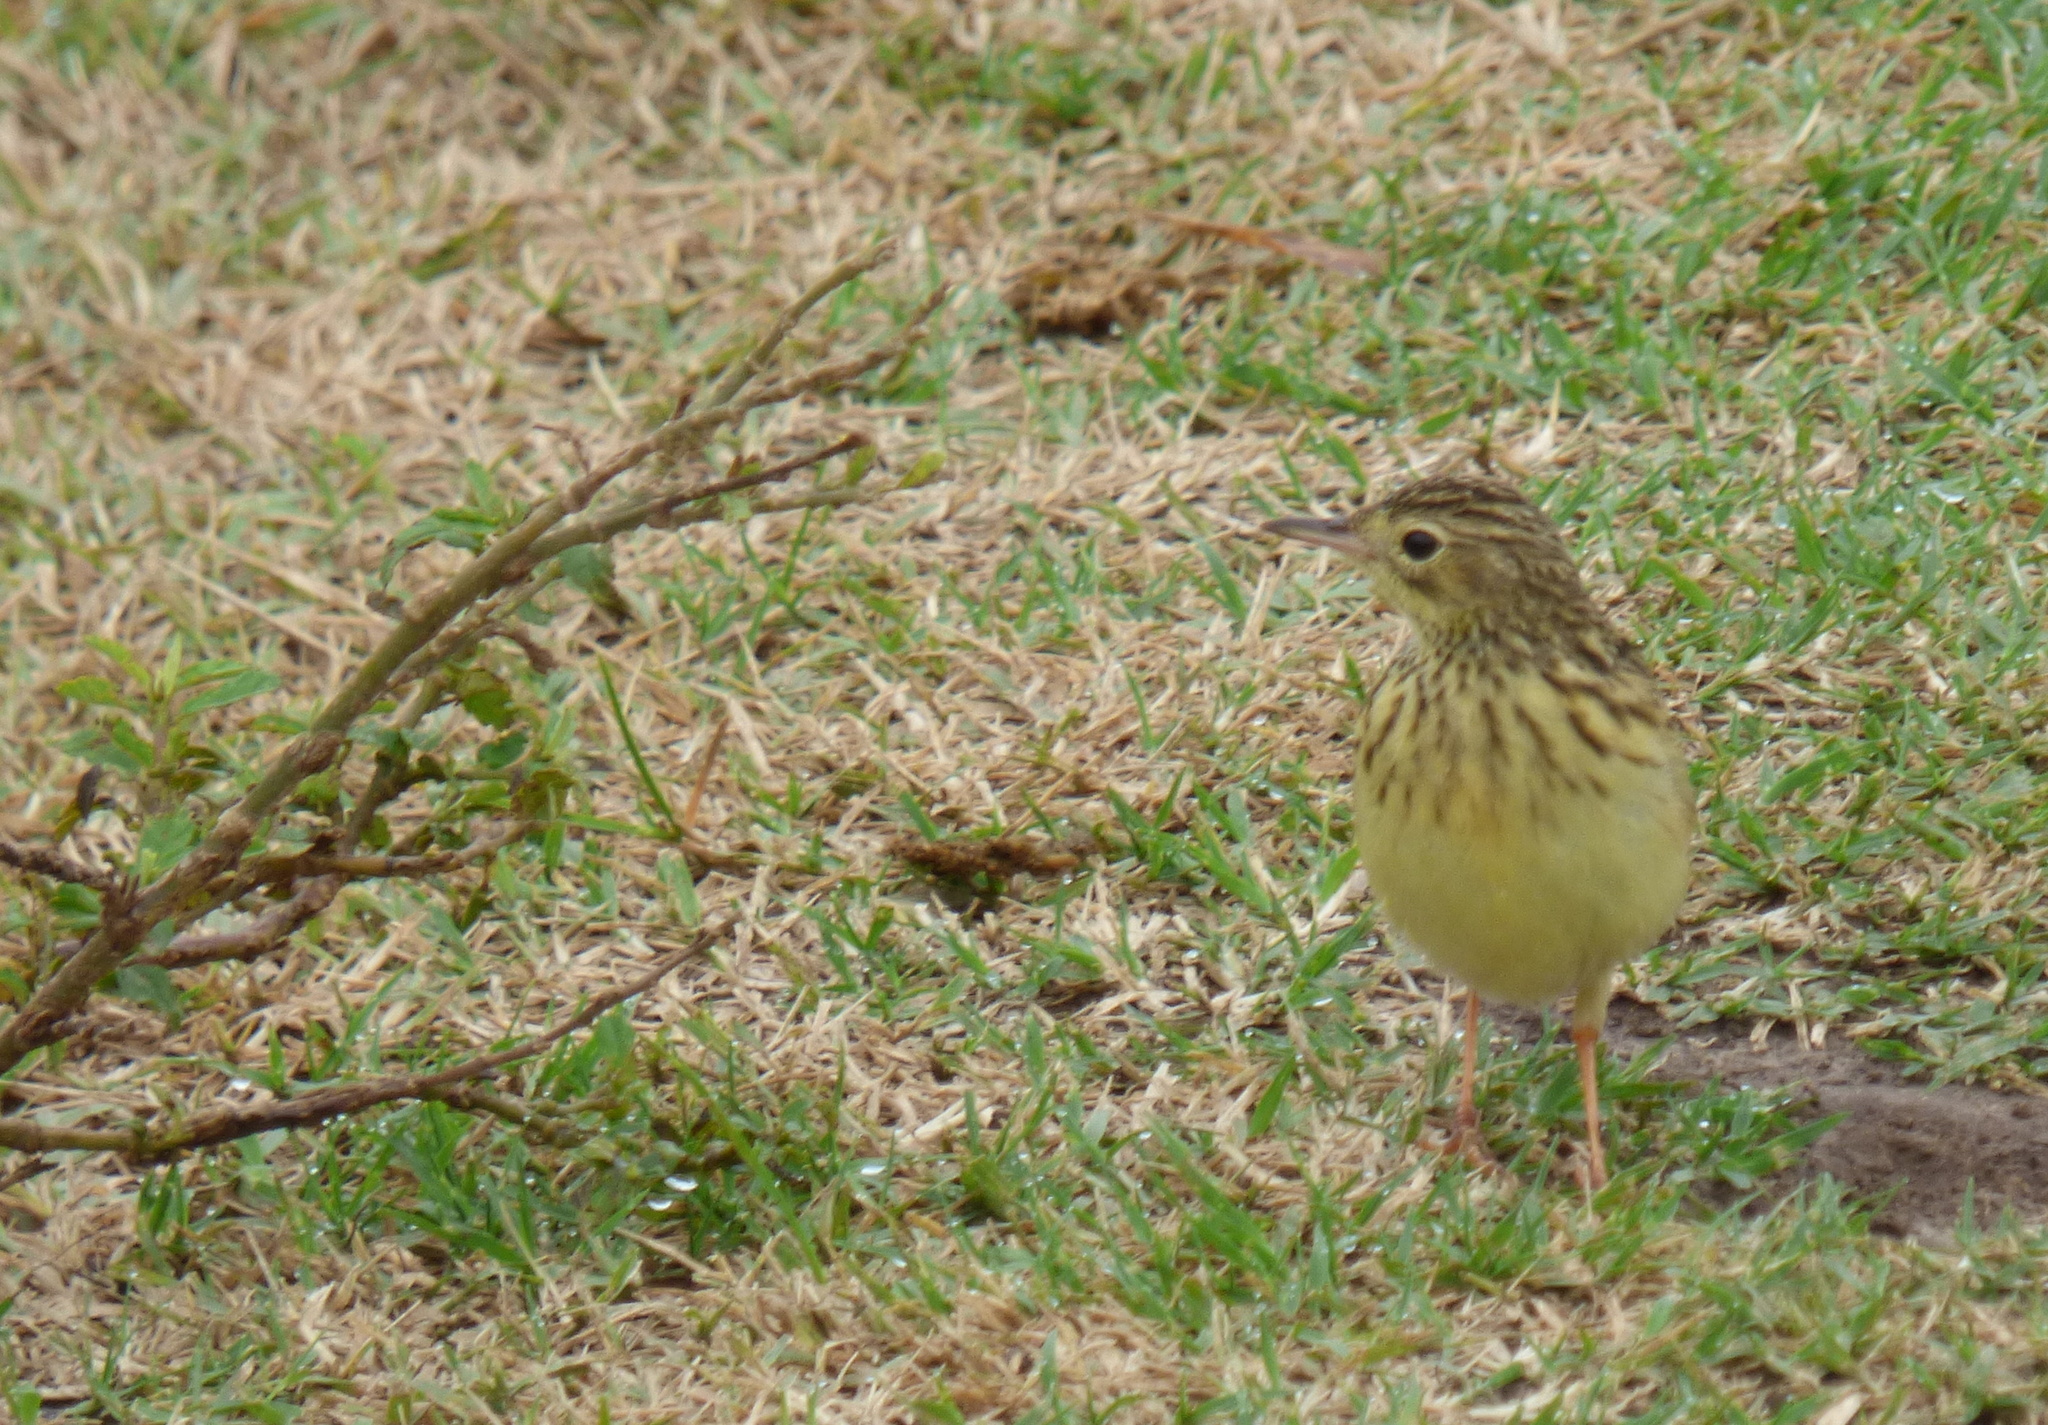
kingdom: Animalia
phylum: Chordata
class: Aves
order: Passeriformes
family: Motacillidae
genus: Anthus
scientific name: Anthus chii
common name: Yellowish pipit
